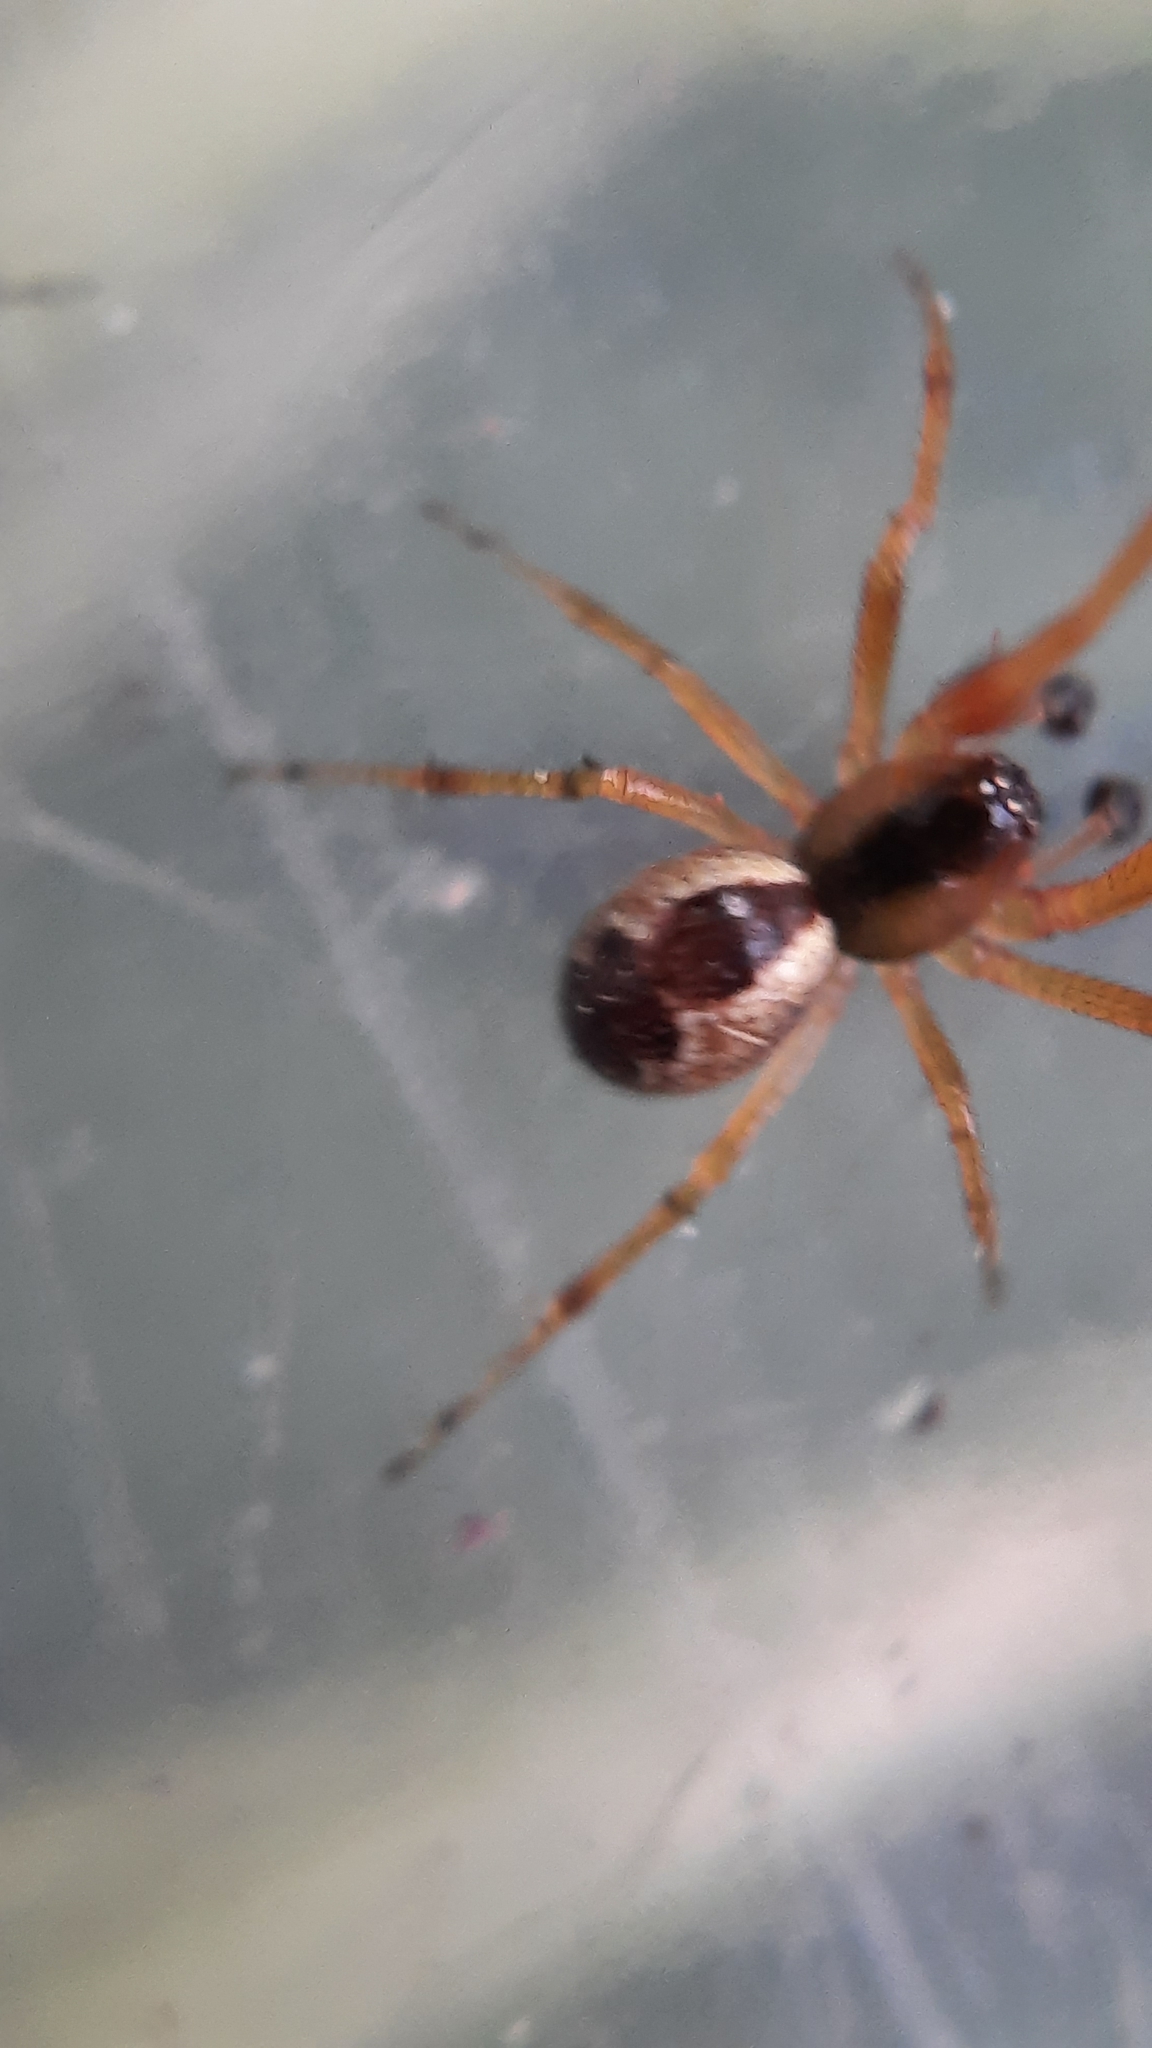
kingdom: Animalia
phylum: Arthropoda
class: Arachnida
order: Araneae
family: Theridiidae
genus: Anelosimus
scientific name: Anelosimus vittatus
